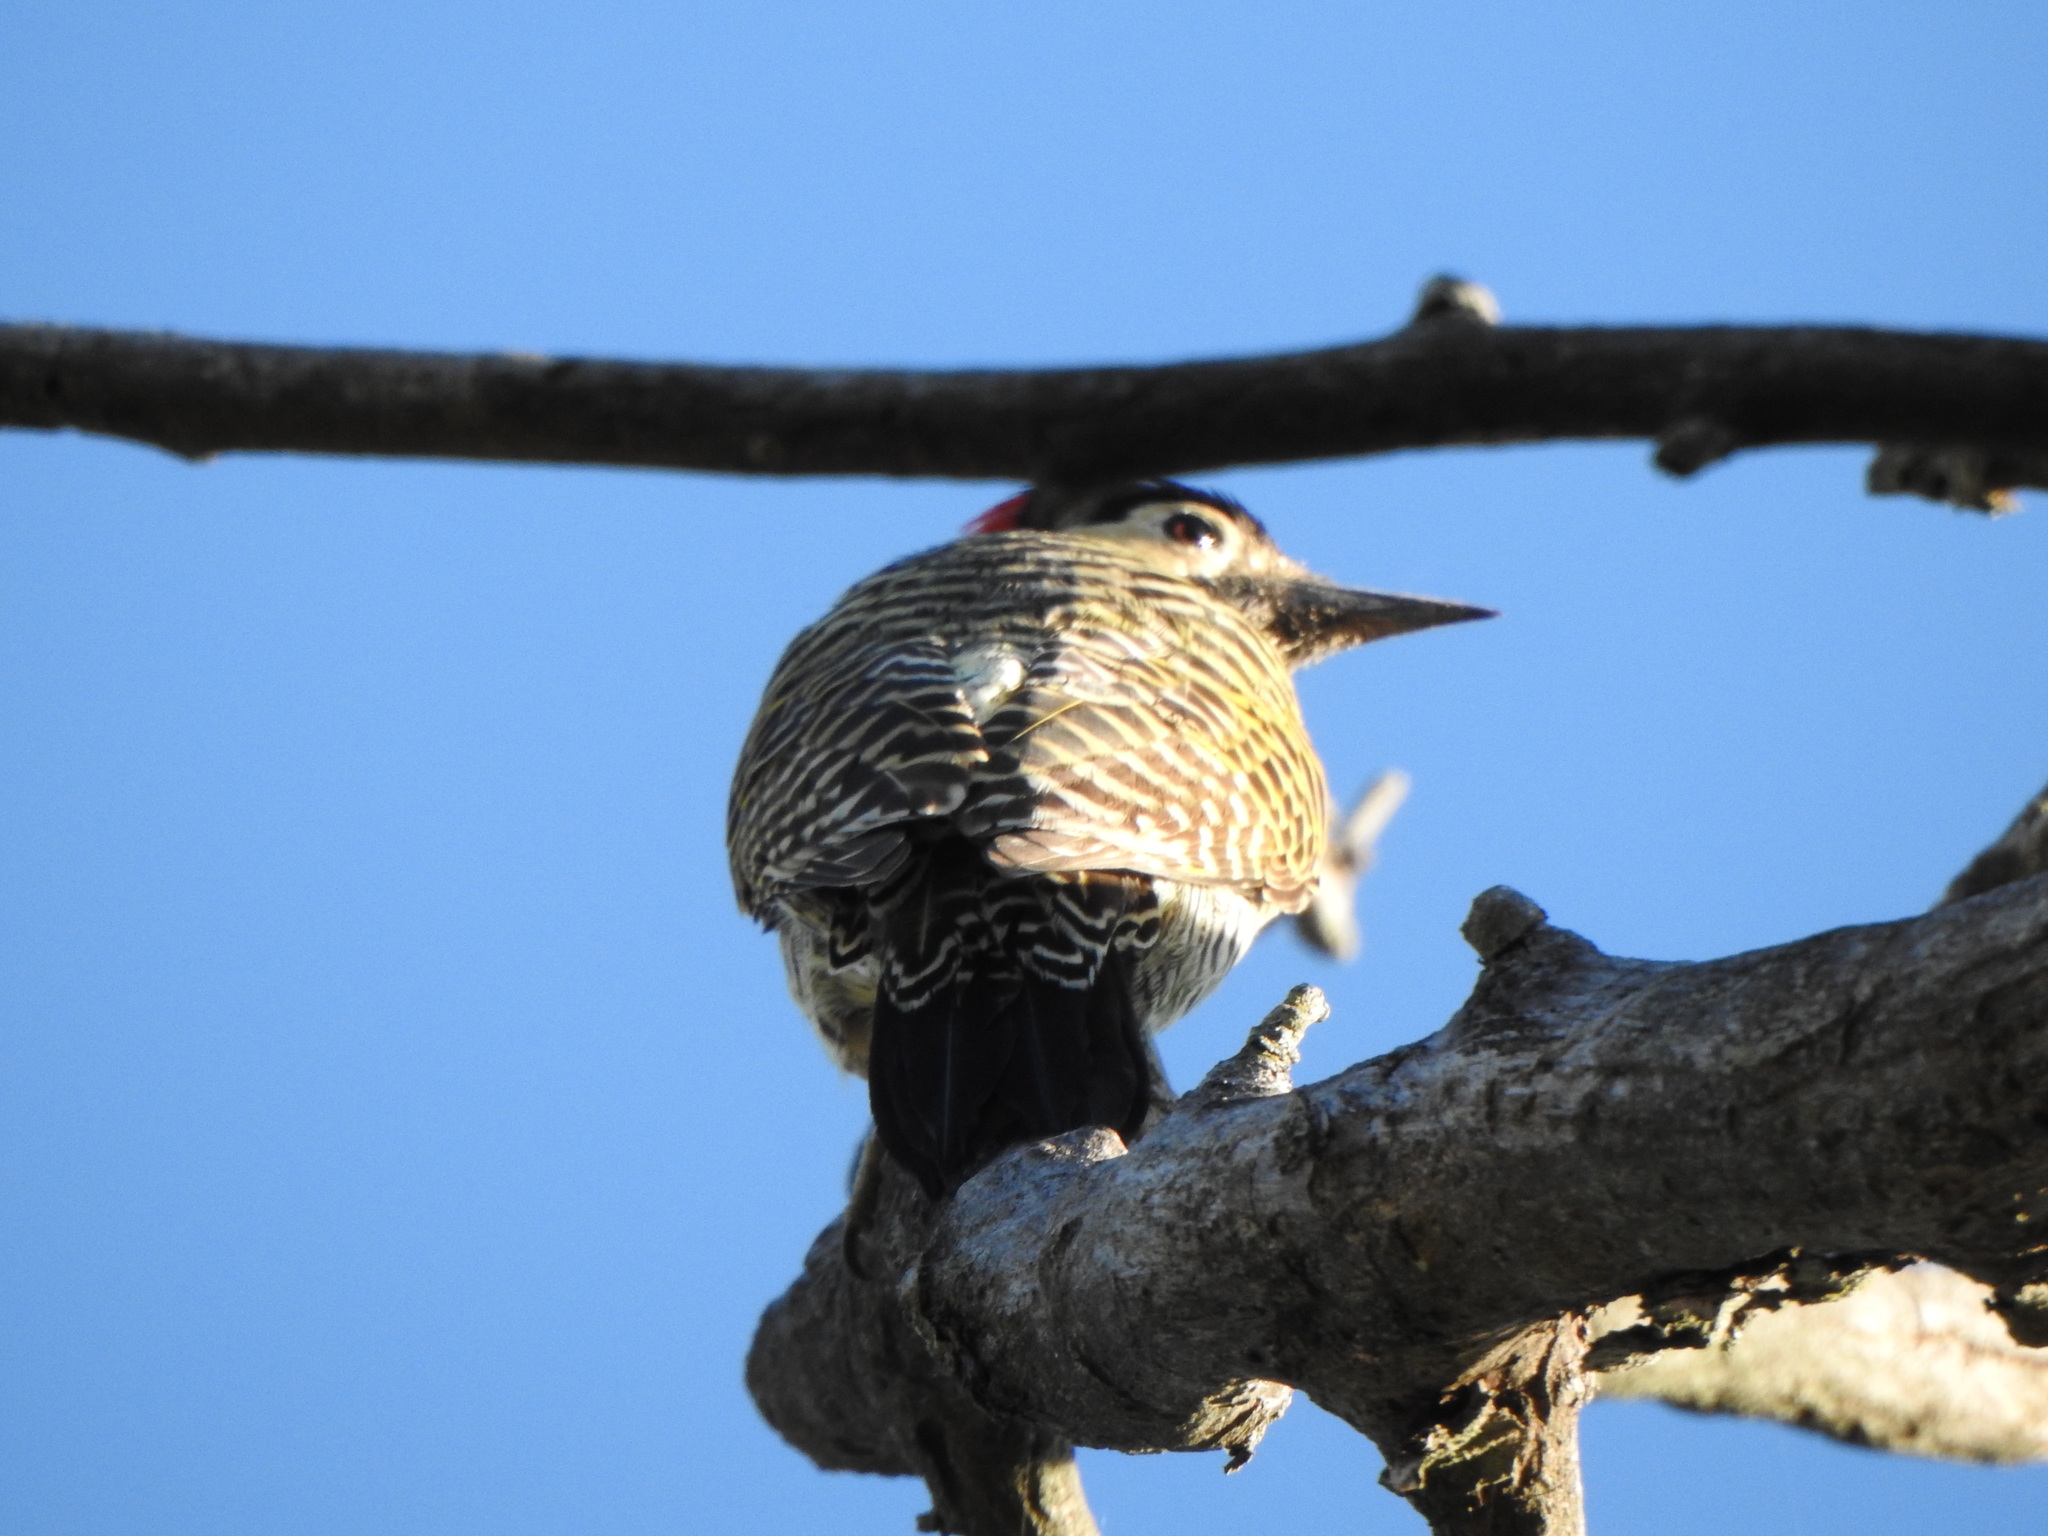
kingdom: Animalia
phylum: Chordata
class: Aves
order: Piciformes
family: Picidae
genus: Colaptes
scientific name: Colaptes melanochloros
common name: Green-barred woodpecker
